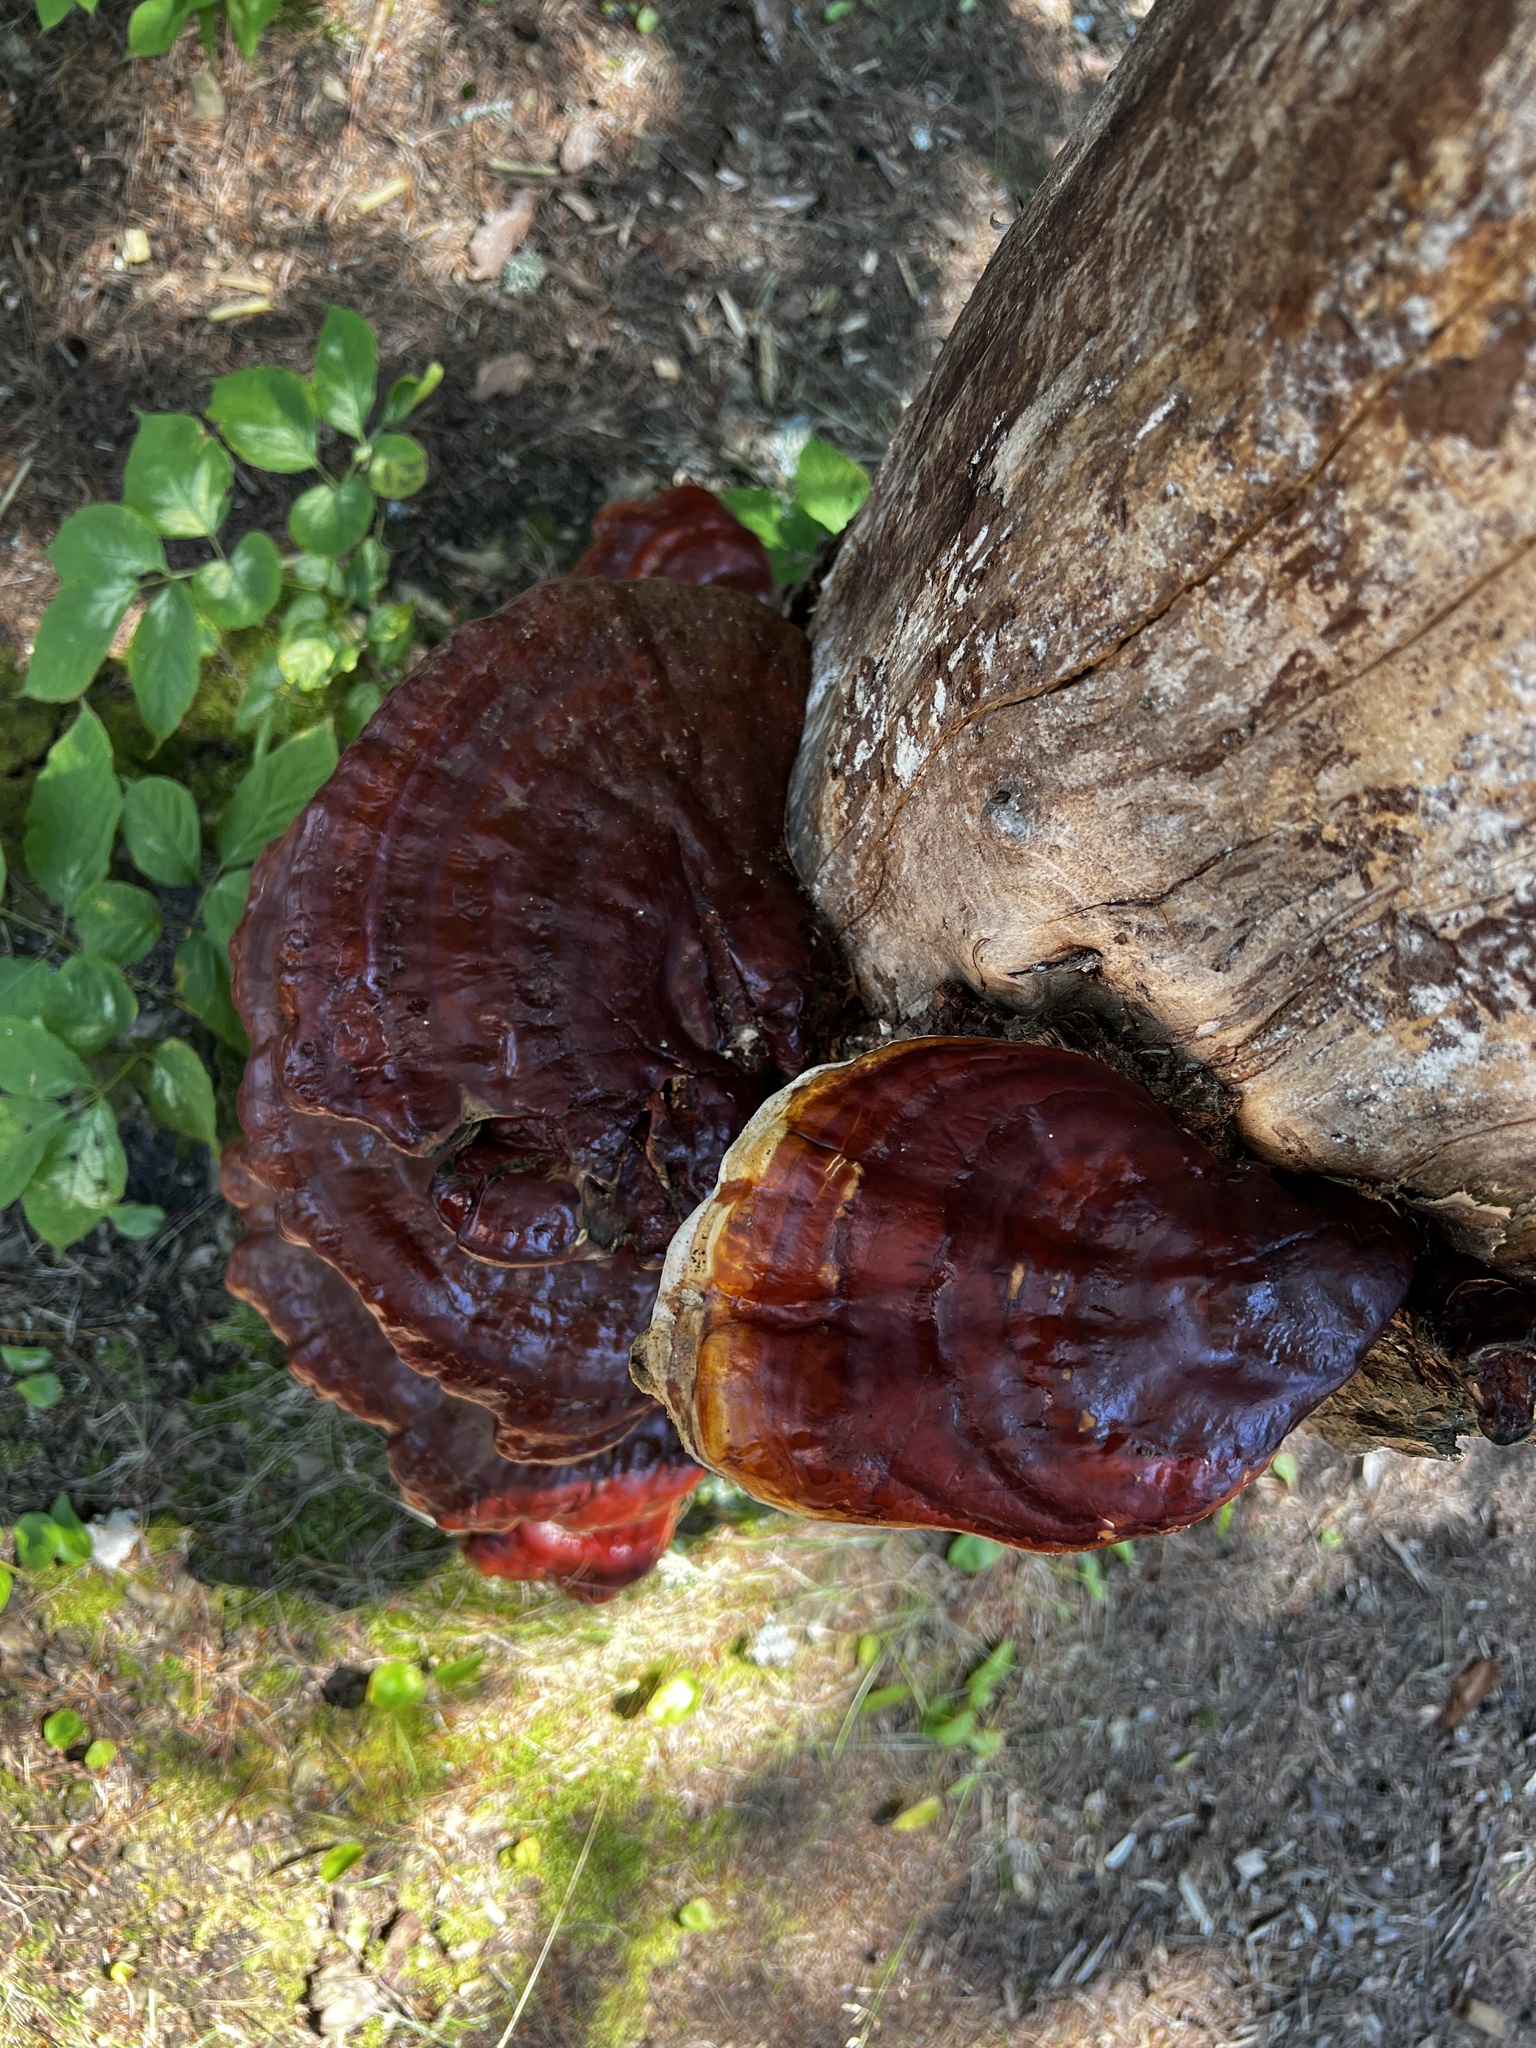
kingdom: Fungi
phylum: Basidiomycota
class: Agaricomycetes
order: Polyporales
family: Polyporaceae
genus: Ganoderma
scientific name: Ganoderma tsugae
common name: Hemlock varnish shelf
